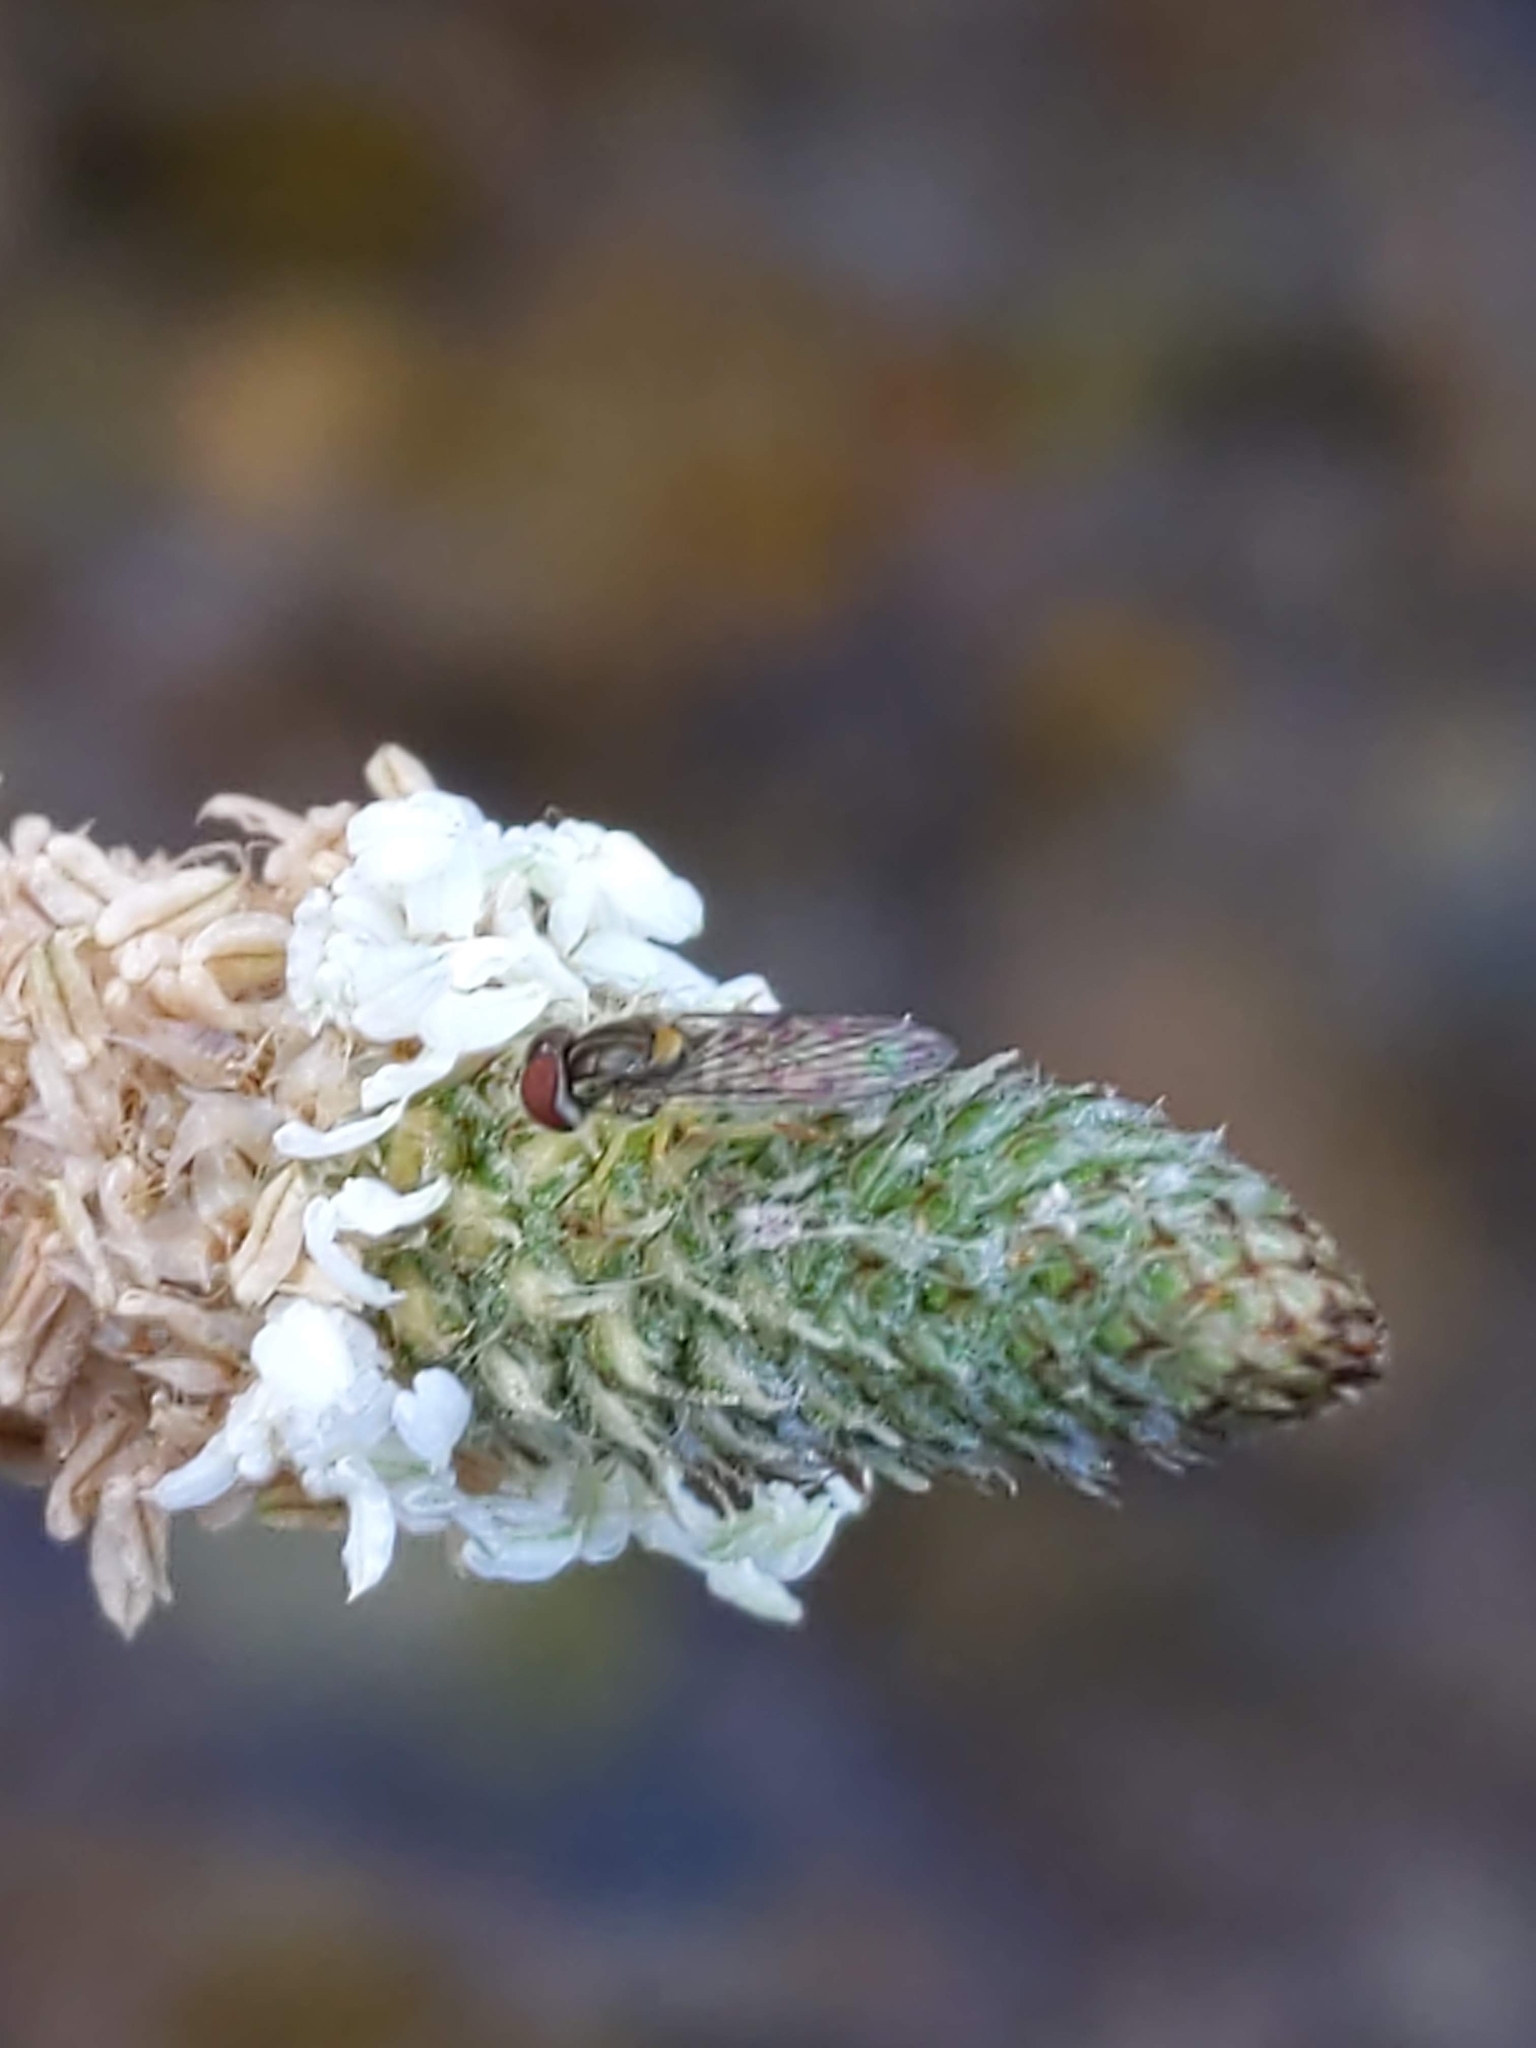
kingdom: Animalia
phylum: Arthropoda
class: Insecta
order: Diptera
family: Syrphidae
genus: Toxomerus
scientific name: Toxomerus marginatus
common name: Syrphid fly
